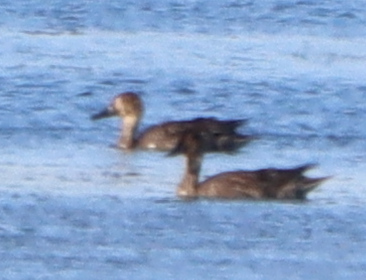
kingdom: Animalia
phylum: Chordata
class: Aves
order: Anseriformes
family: Anatidae
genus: Anas
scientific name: Anas acuta
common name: Northern pintail
